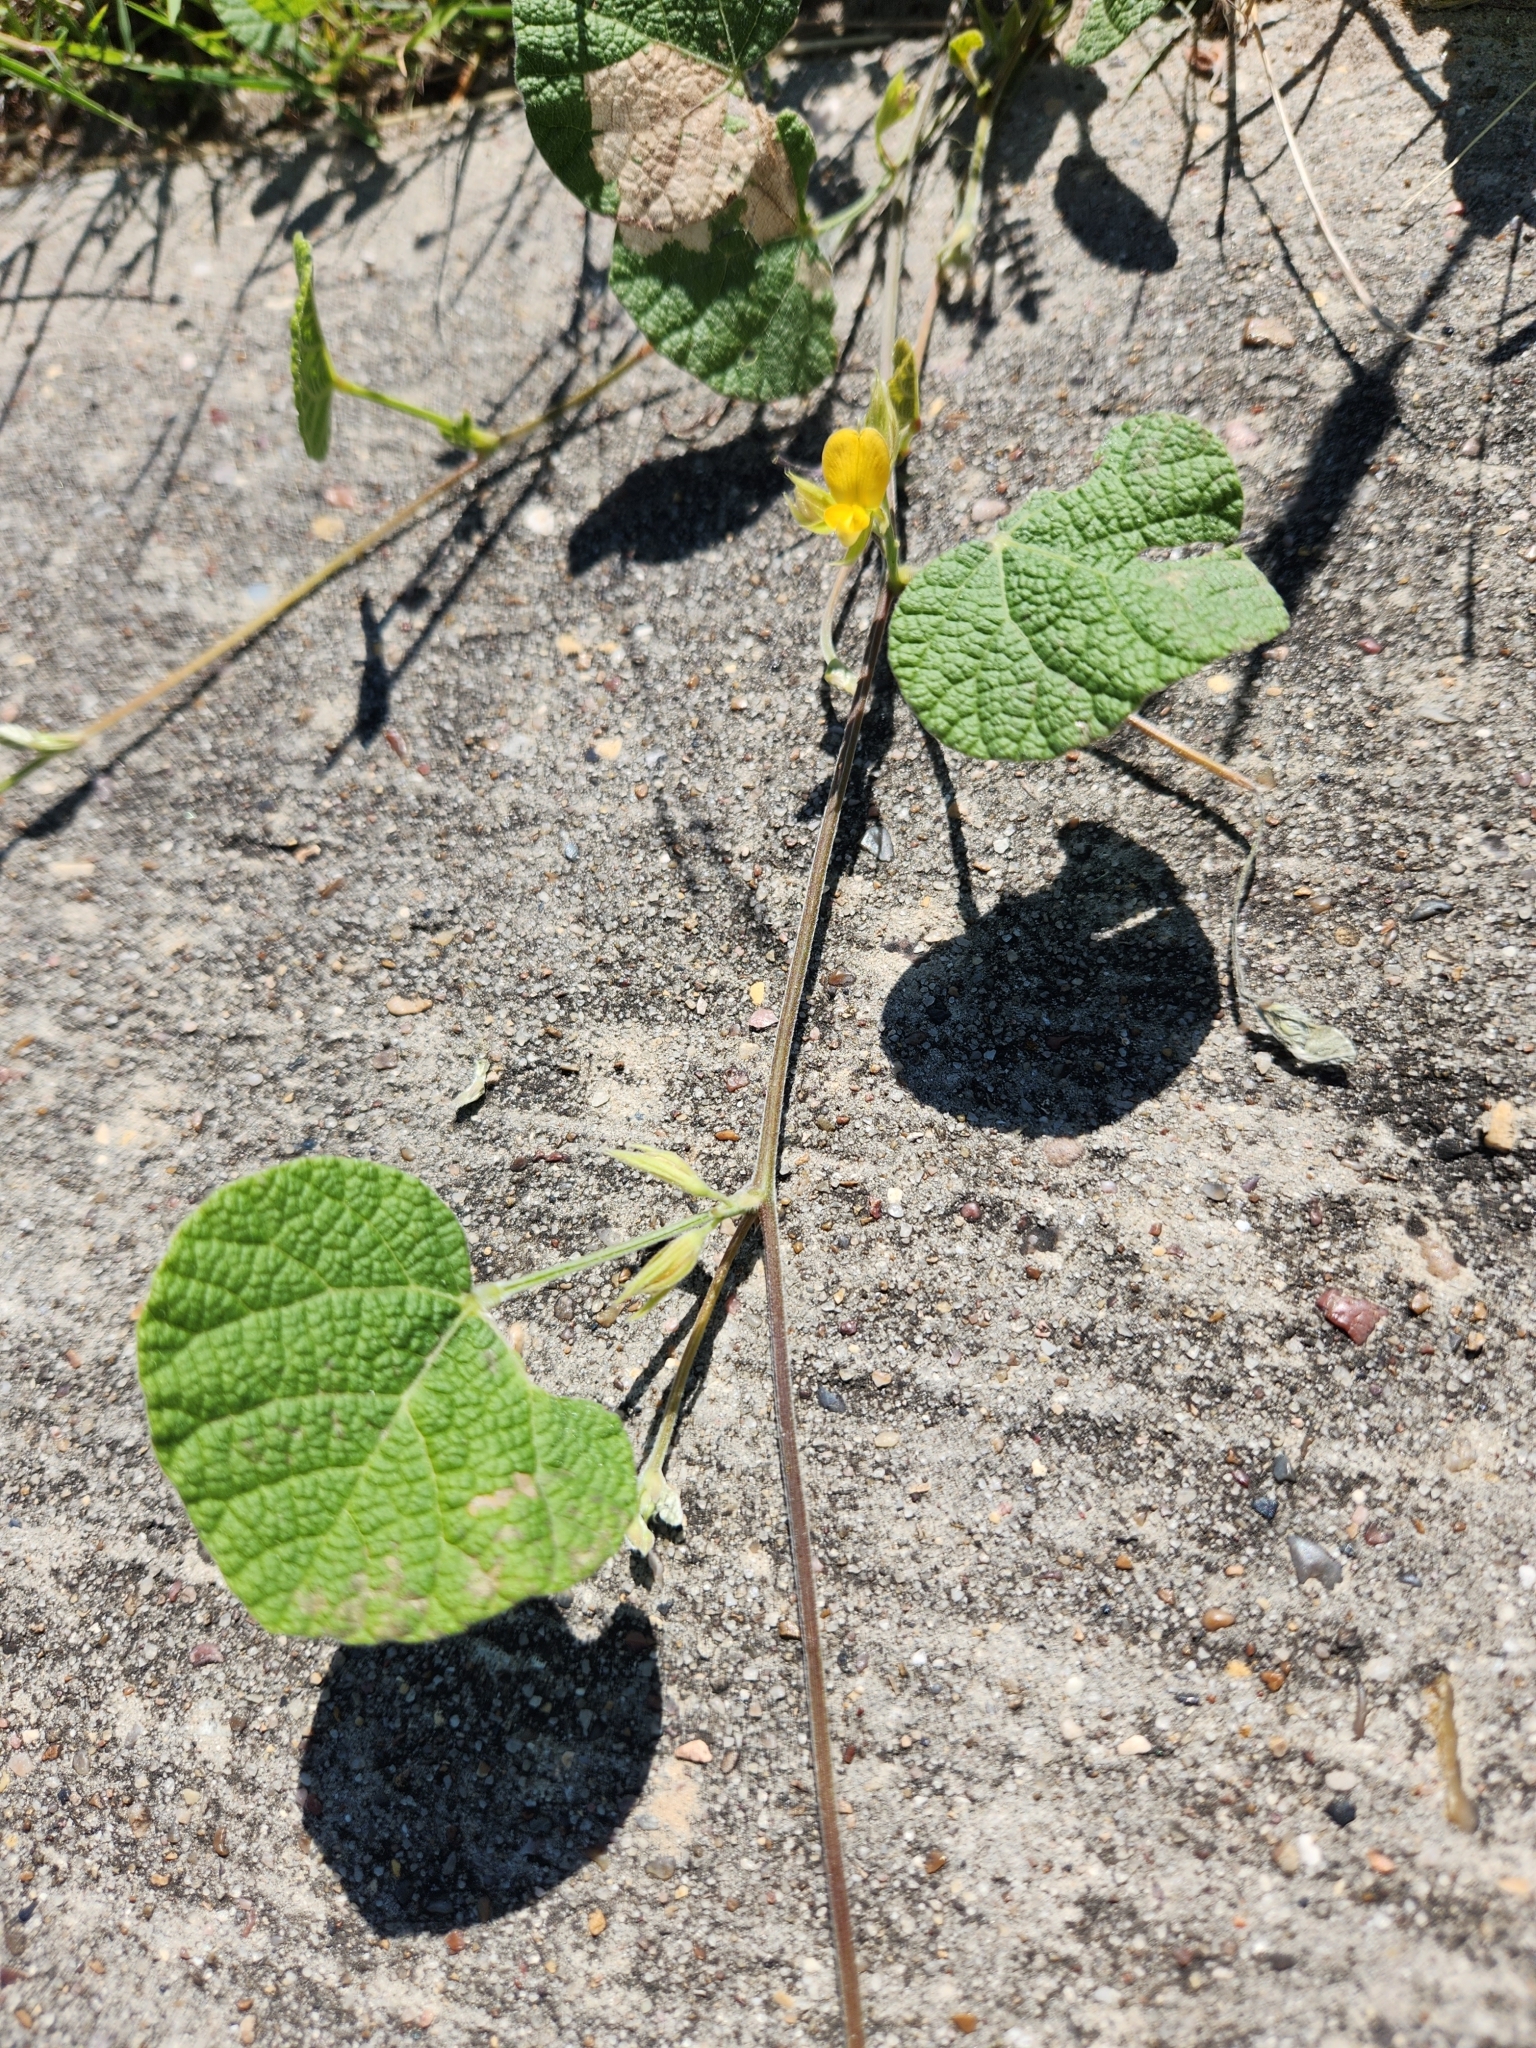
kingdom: Plantae
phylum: Tracheophyta
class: Magnoliopsida
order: Fabales
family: Fabaceae
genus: Rhynchosia
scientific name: Rhynchosia americana
